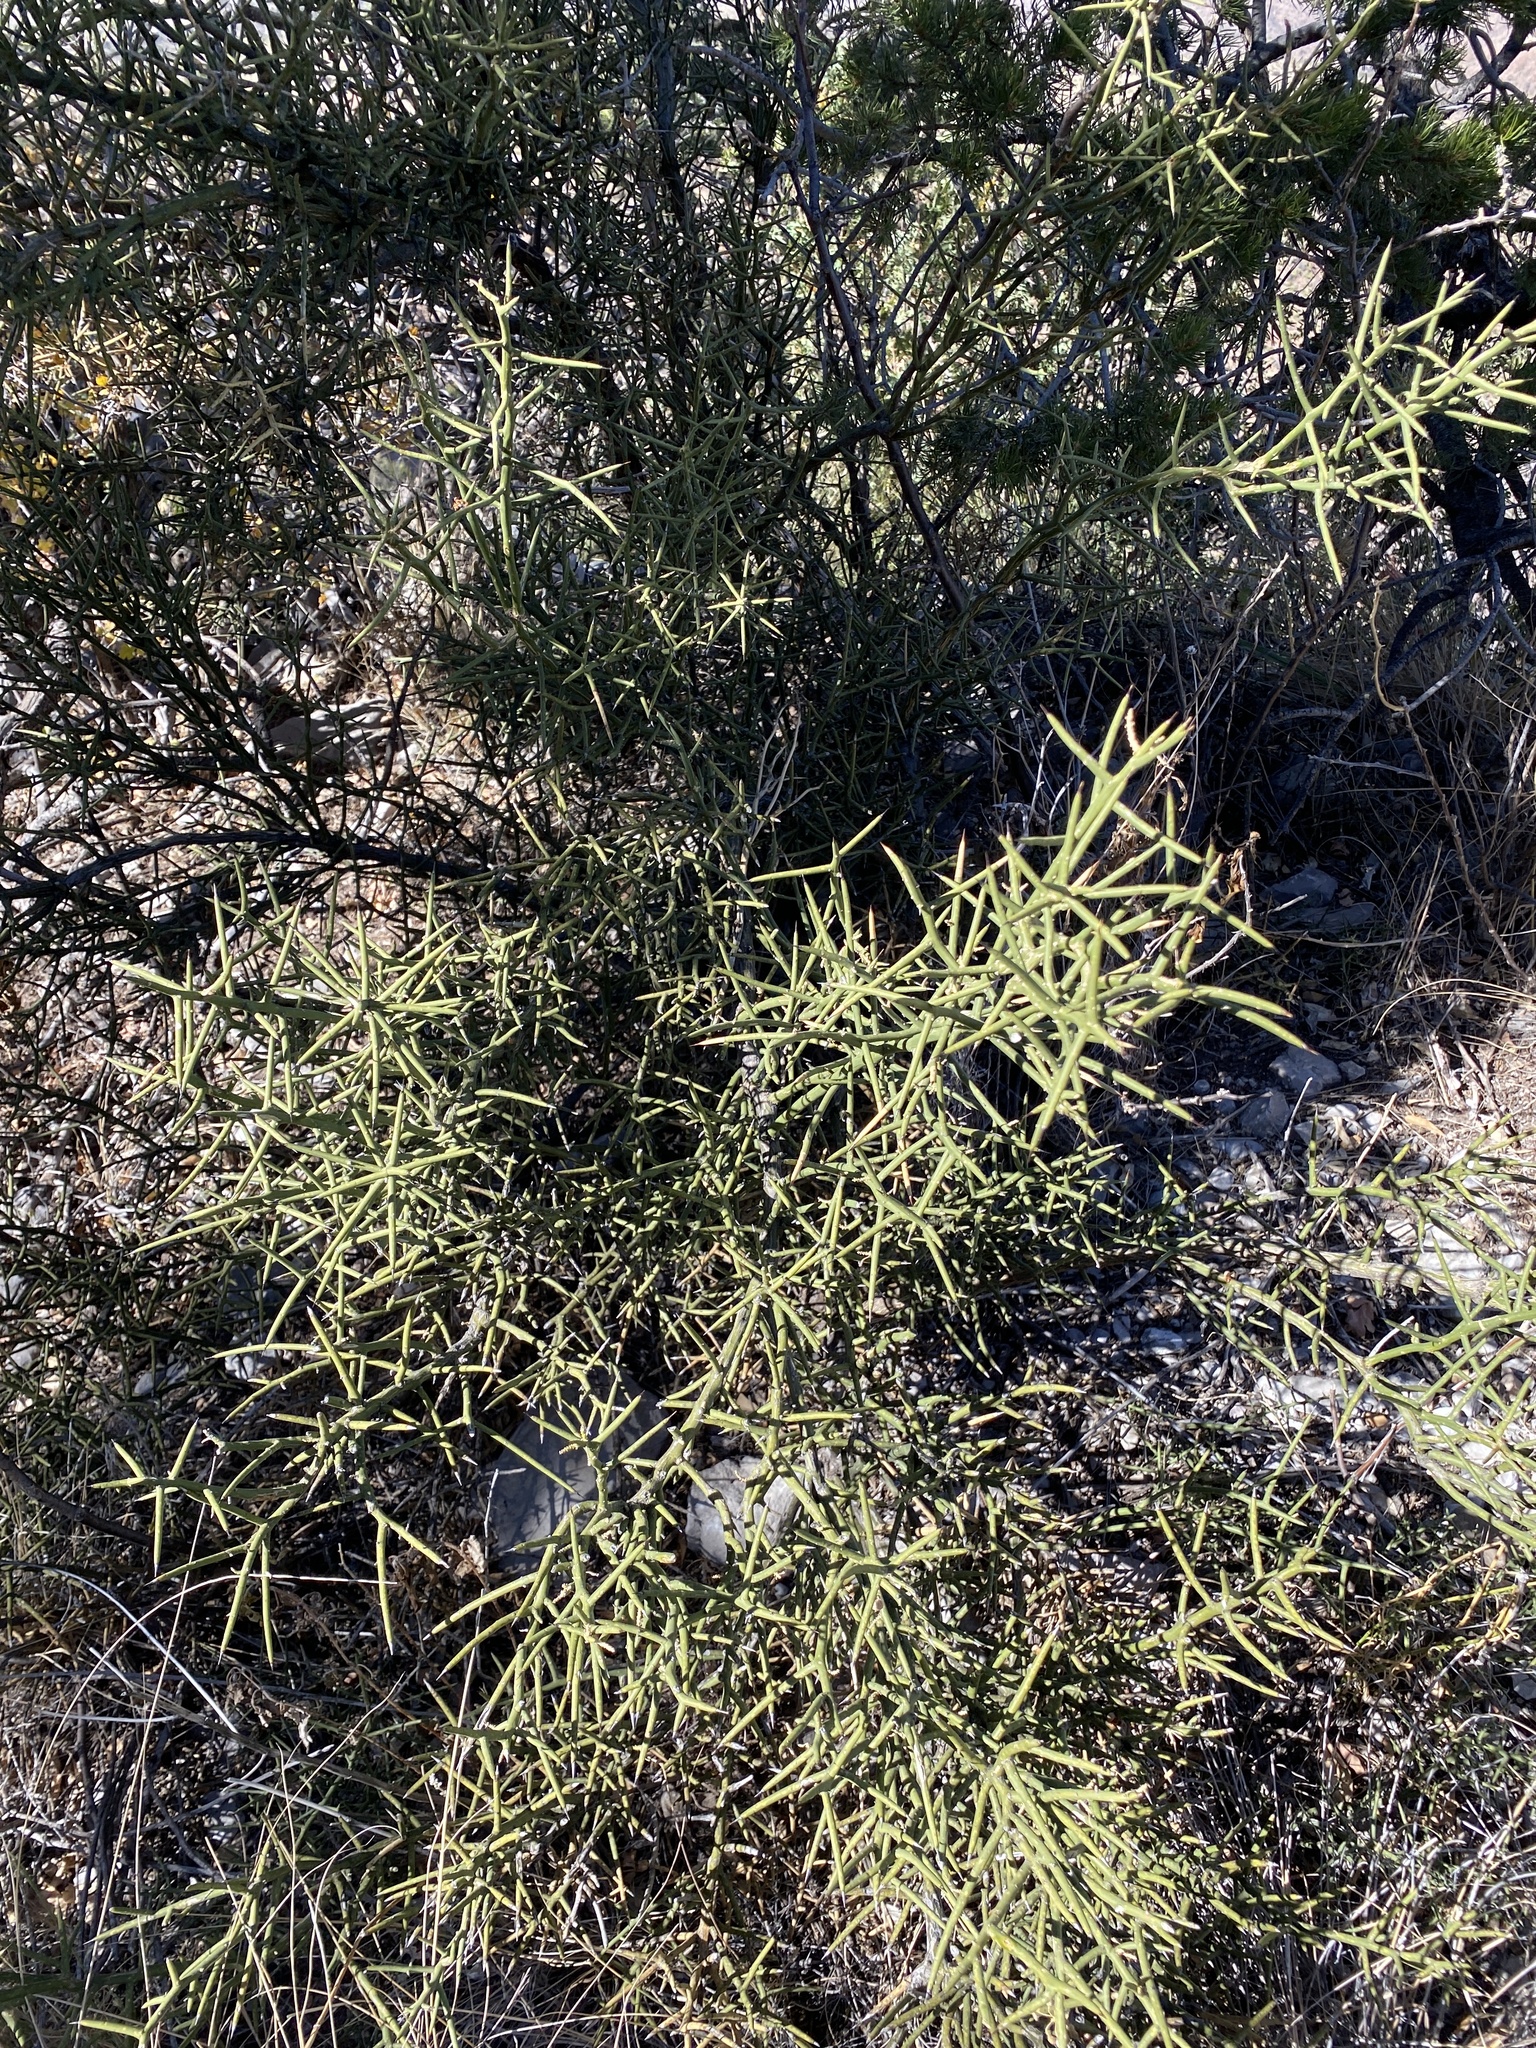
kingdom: Plantae
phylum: Tracheophyta
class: Magnoliopsida
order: Brassicales
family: Koeberliniaceae
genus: Koeberlinia
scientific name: Koeberlinia spinosa
